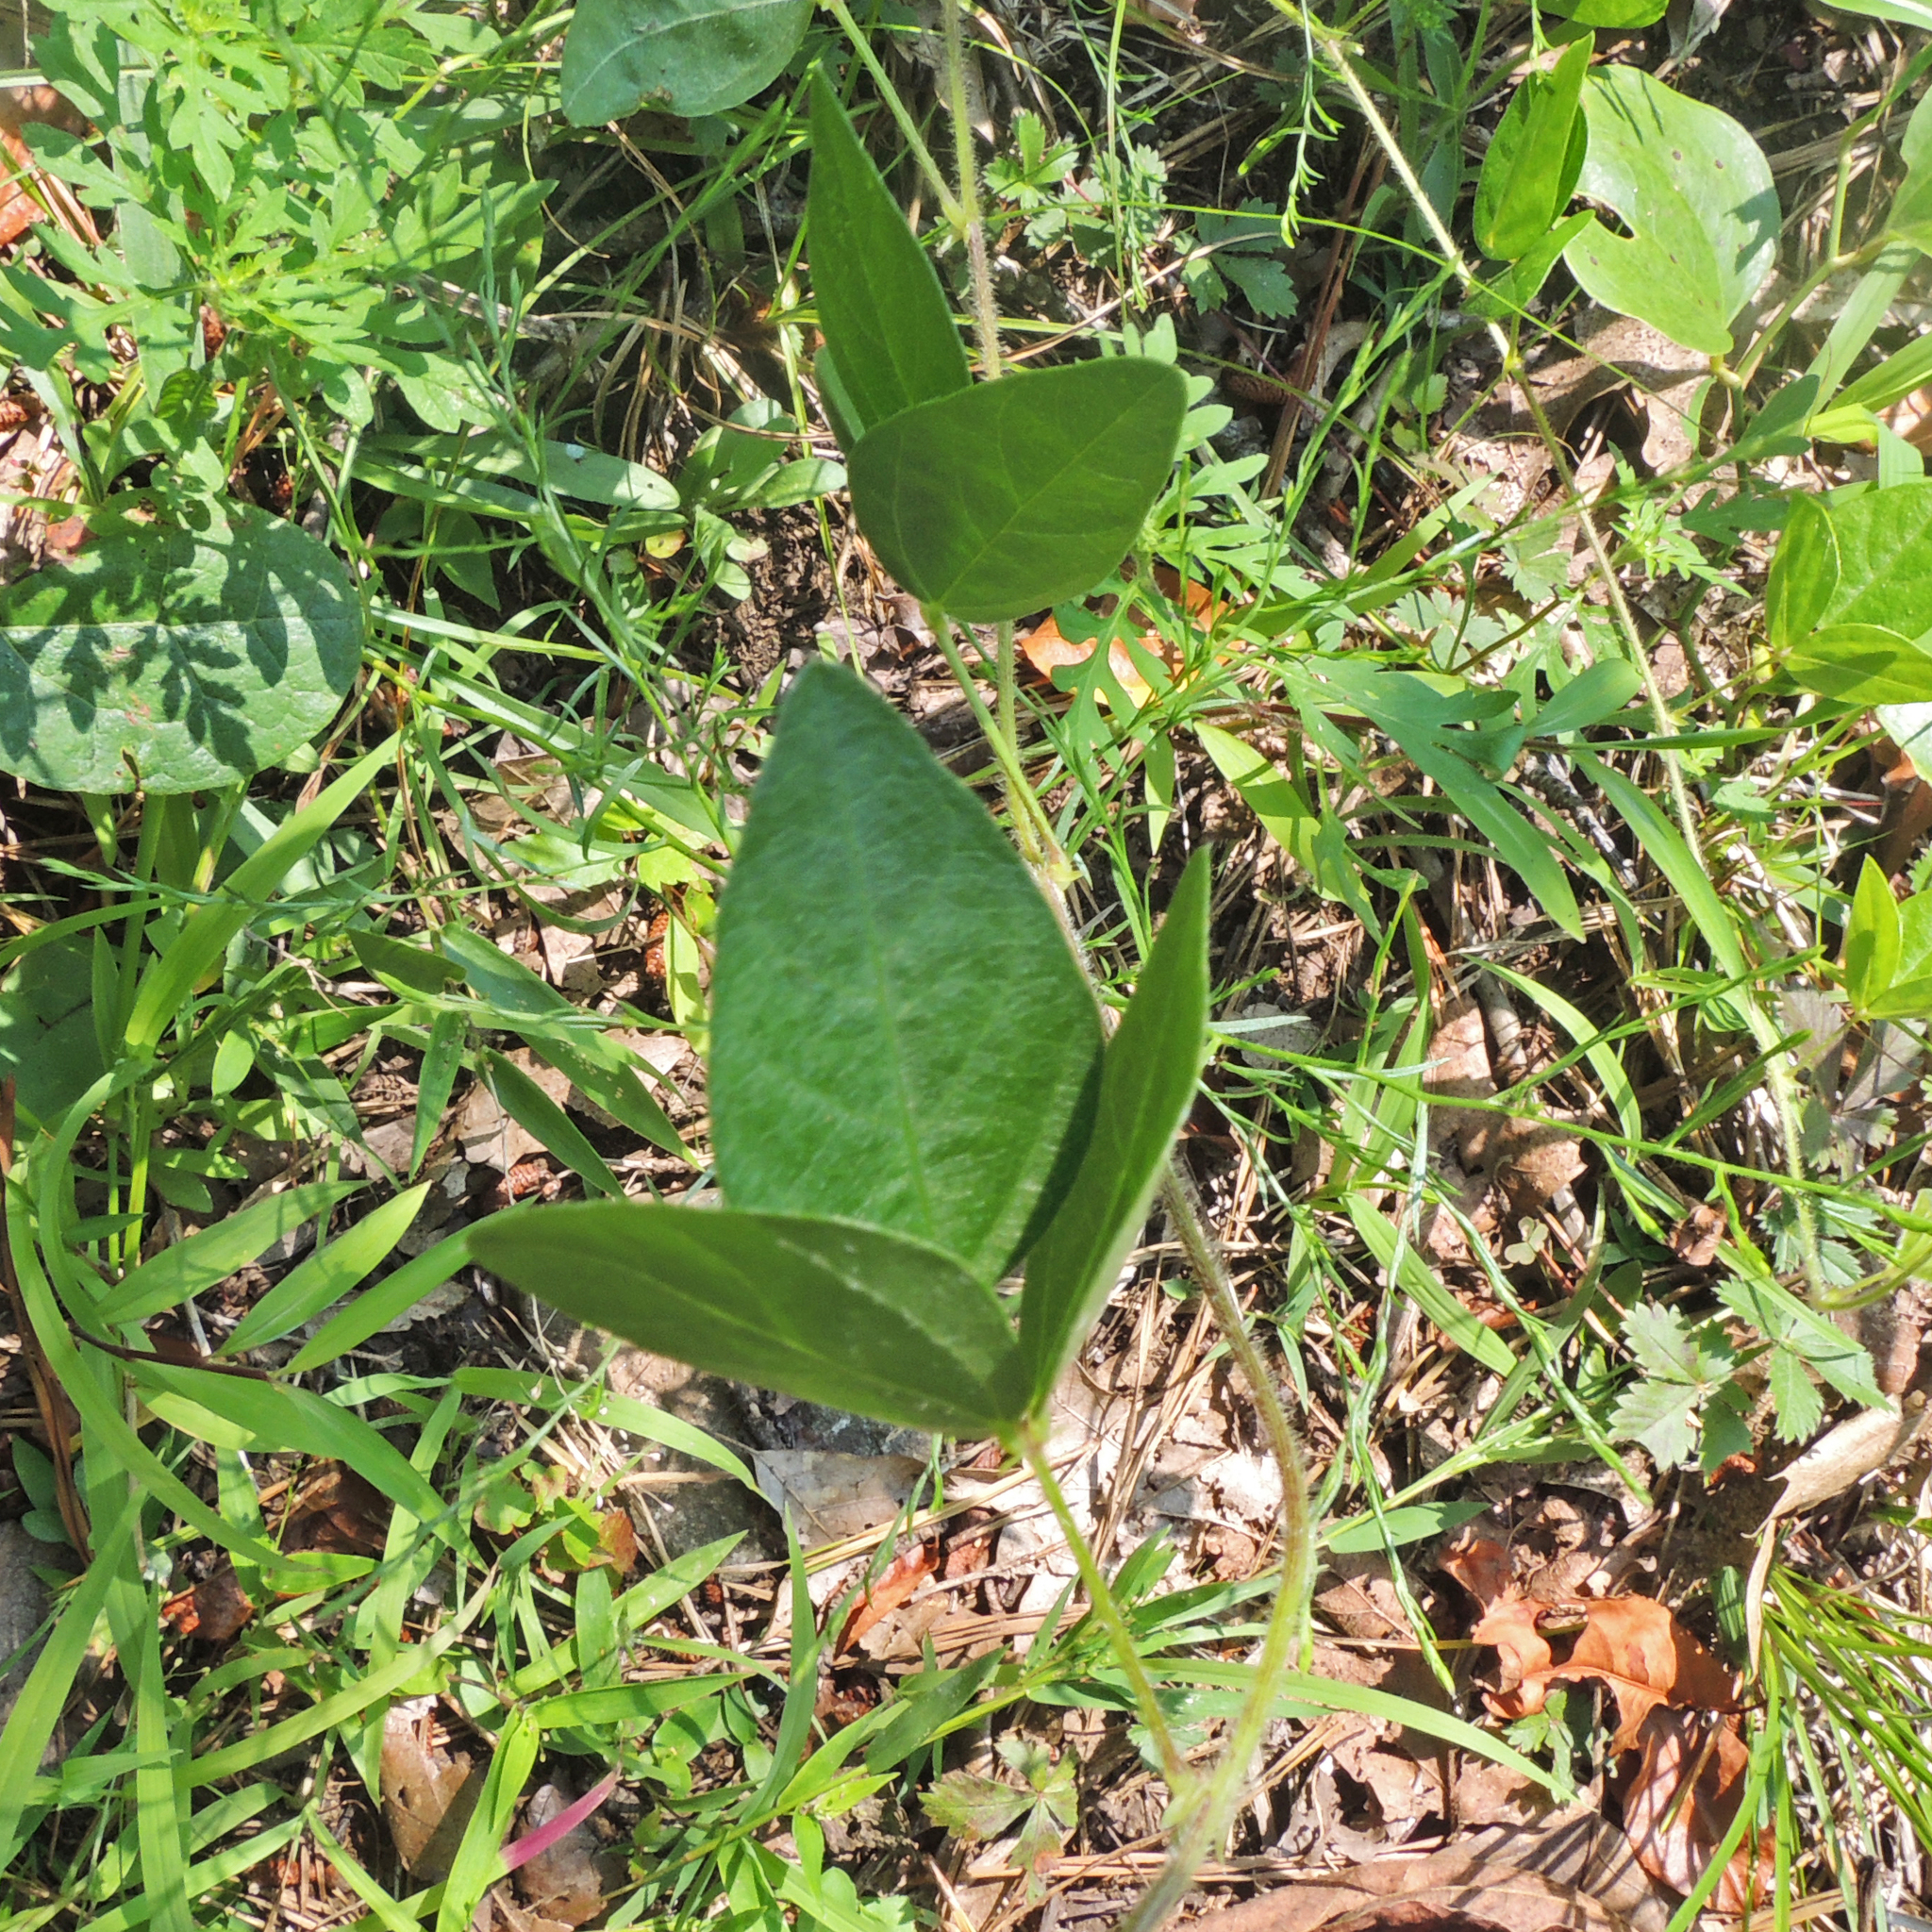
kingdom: Plantae
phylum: Tracheophyta
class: Magnoliopsida
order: Fabales
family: Fabaceae
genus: Strophostyles
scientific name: Strophostyles umbellata
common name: Perennial wild bean
